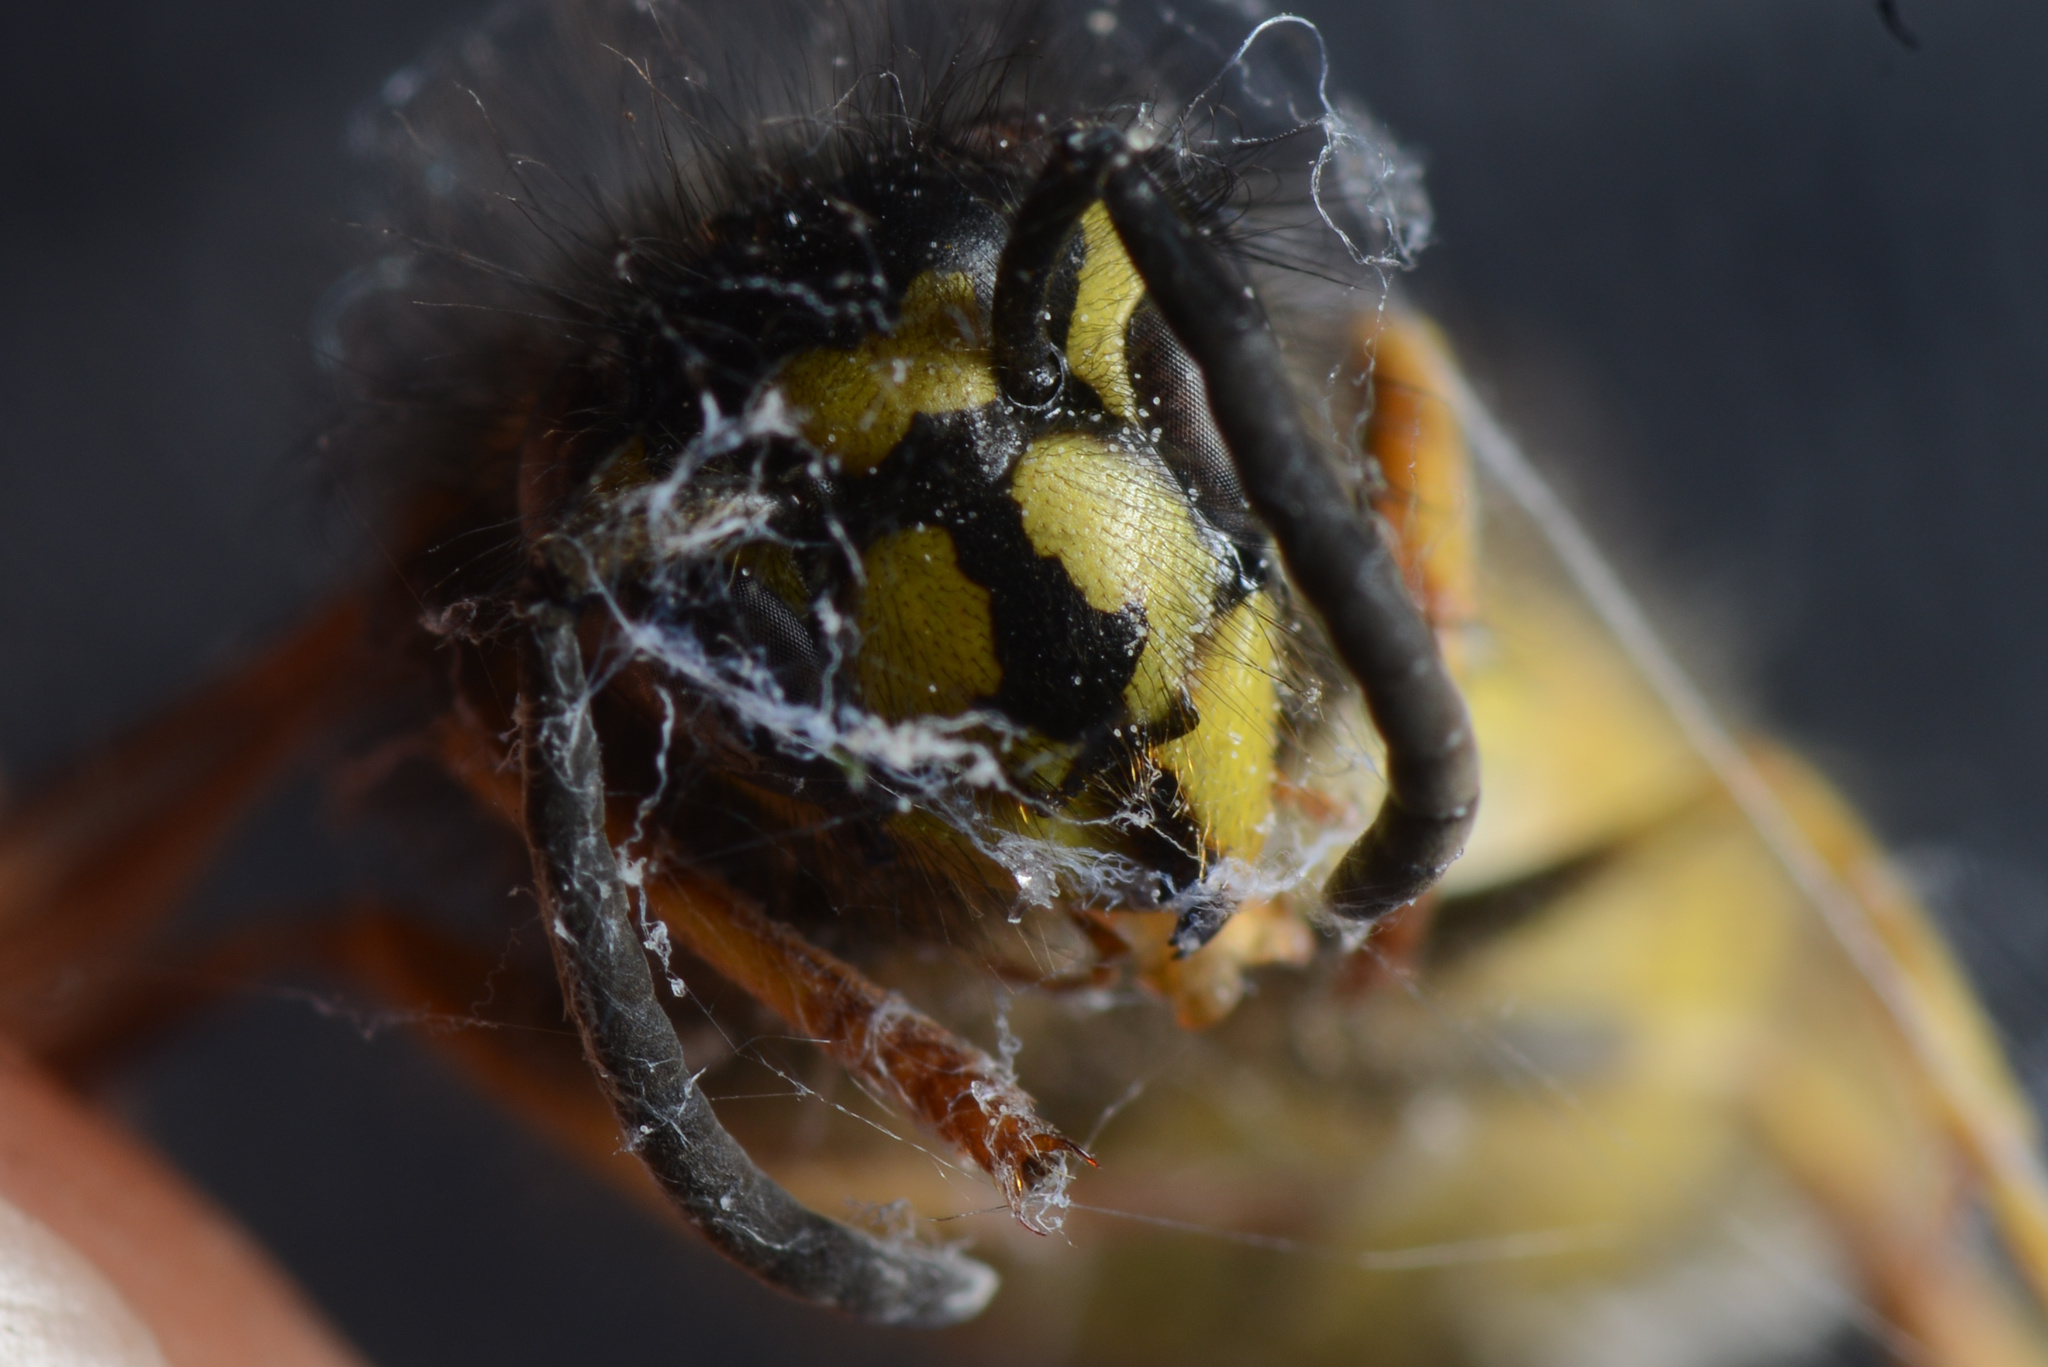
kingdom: Animalia
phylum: Arthropoda
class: Insecta
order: Hymenoptera
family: Vespidae
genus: Vespula
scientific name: Vespula vulgaris
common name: Common wasp
